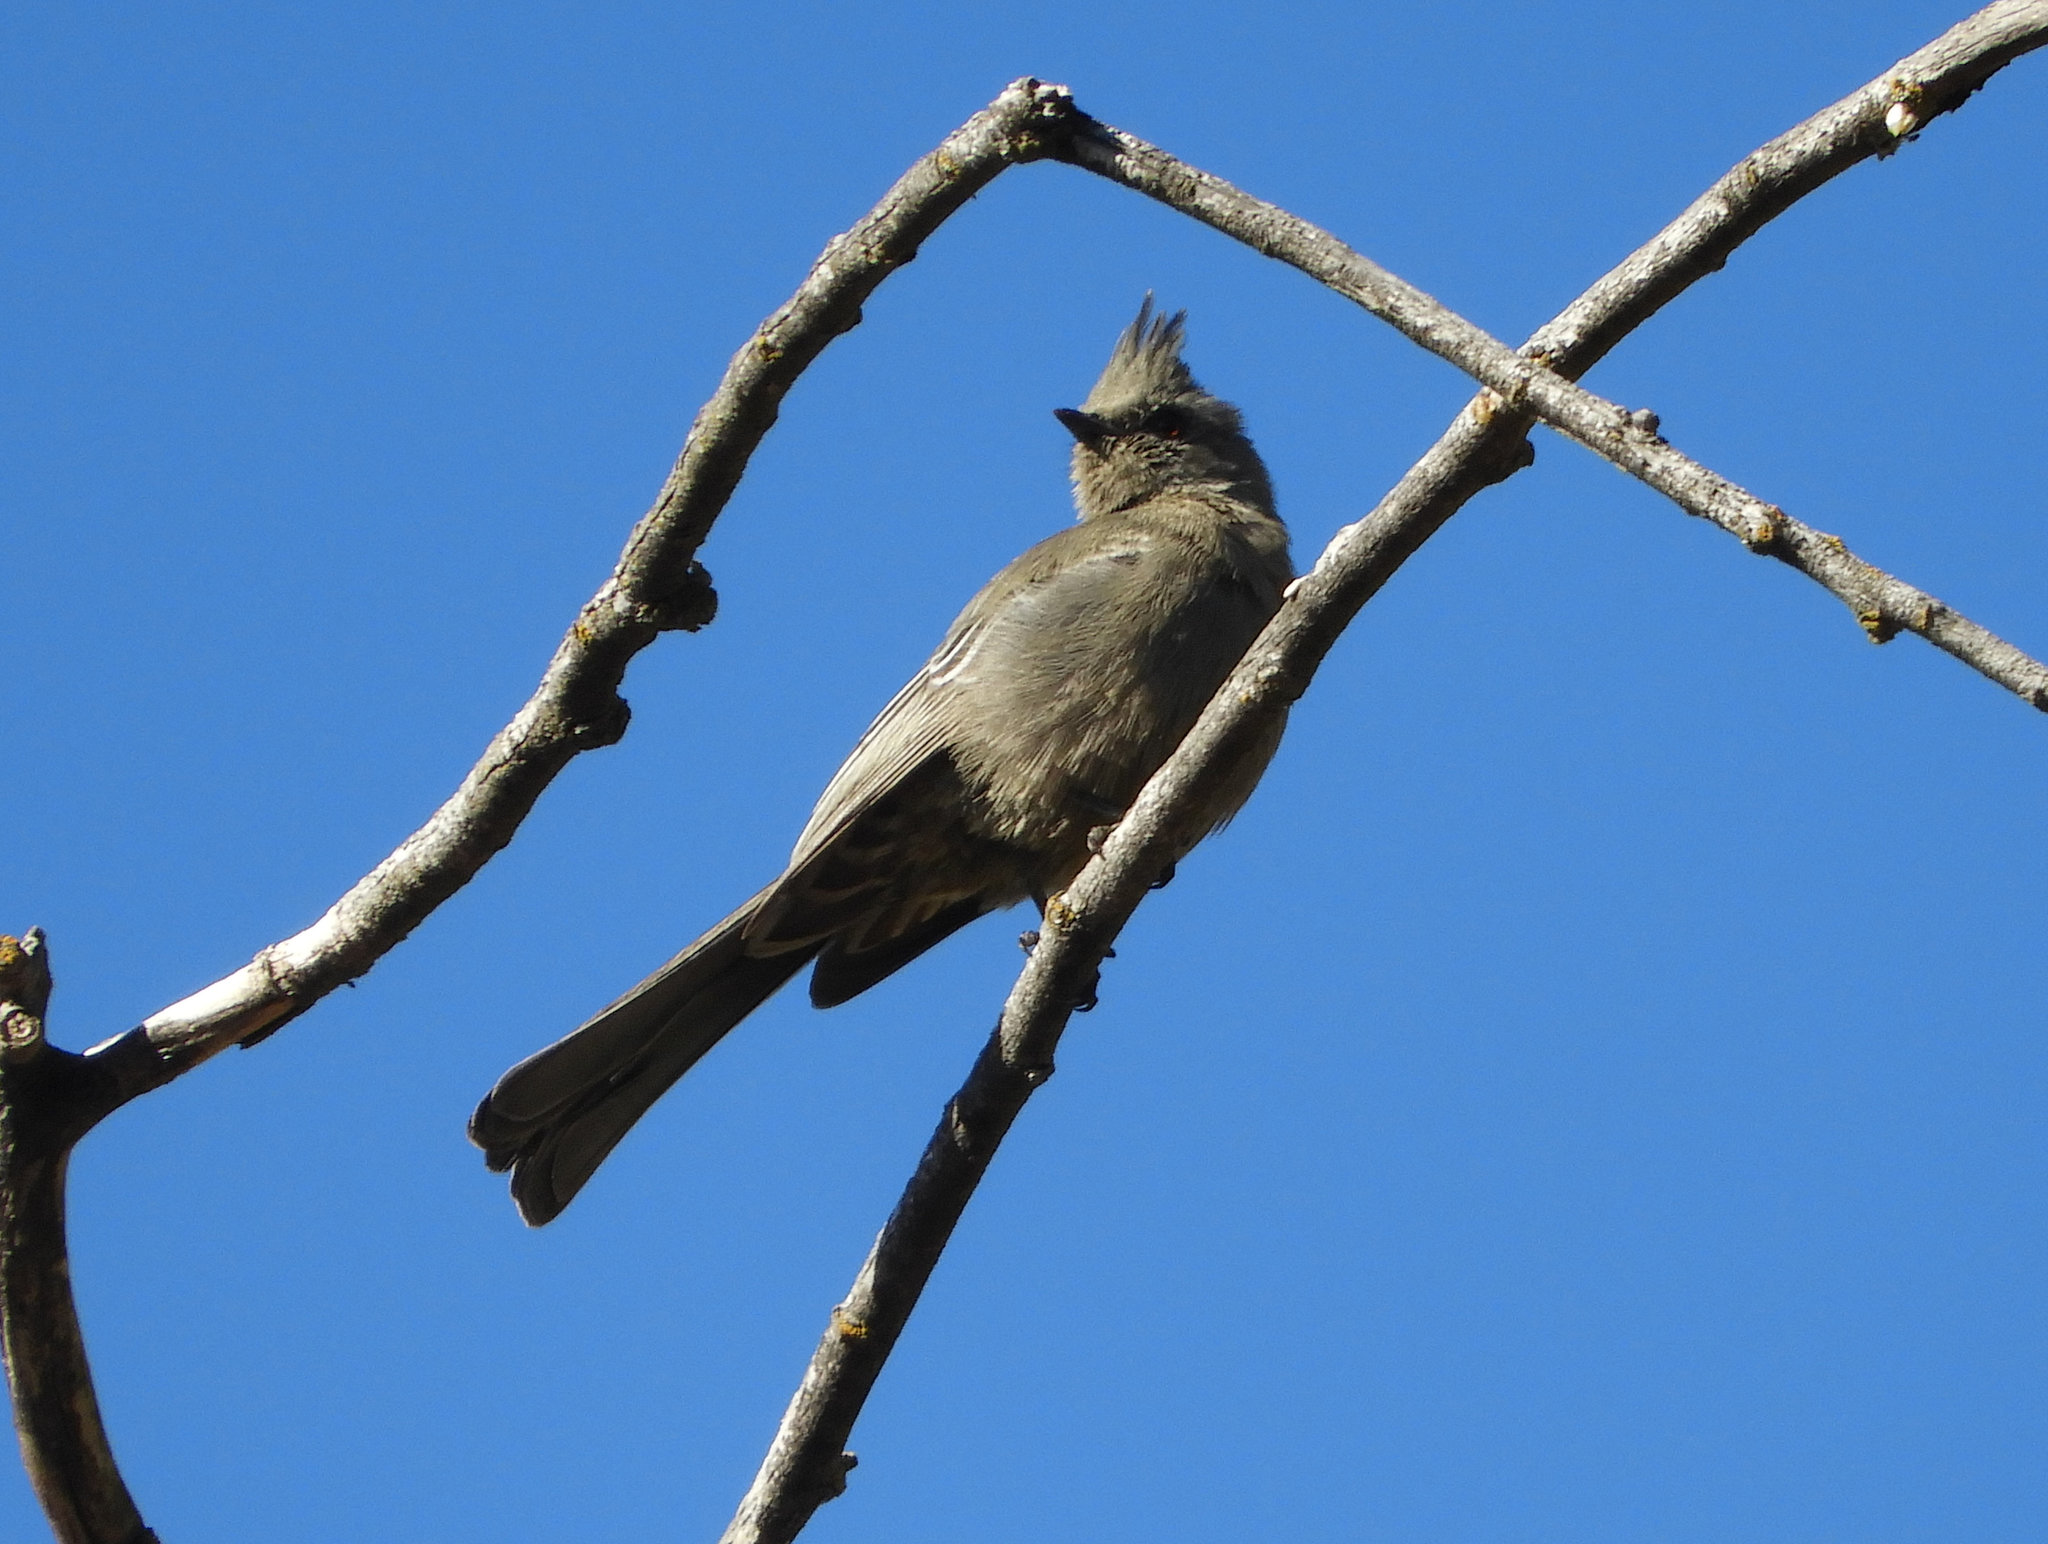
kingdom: Animalia
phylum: Chordata
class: Aves
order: Passeriformes
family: Ptilogonatidae
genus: Phainopepla
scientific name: Phainopepla nitens
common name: Phainopepla
